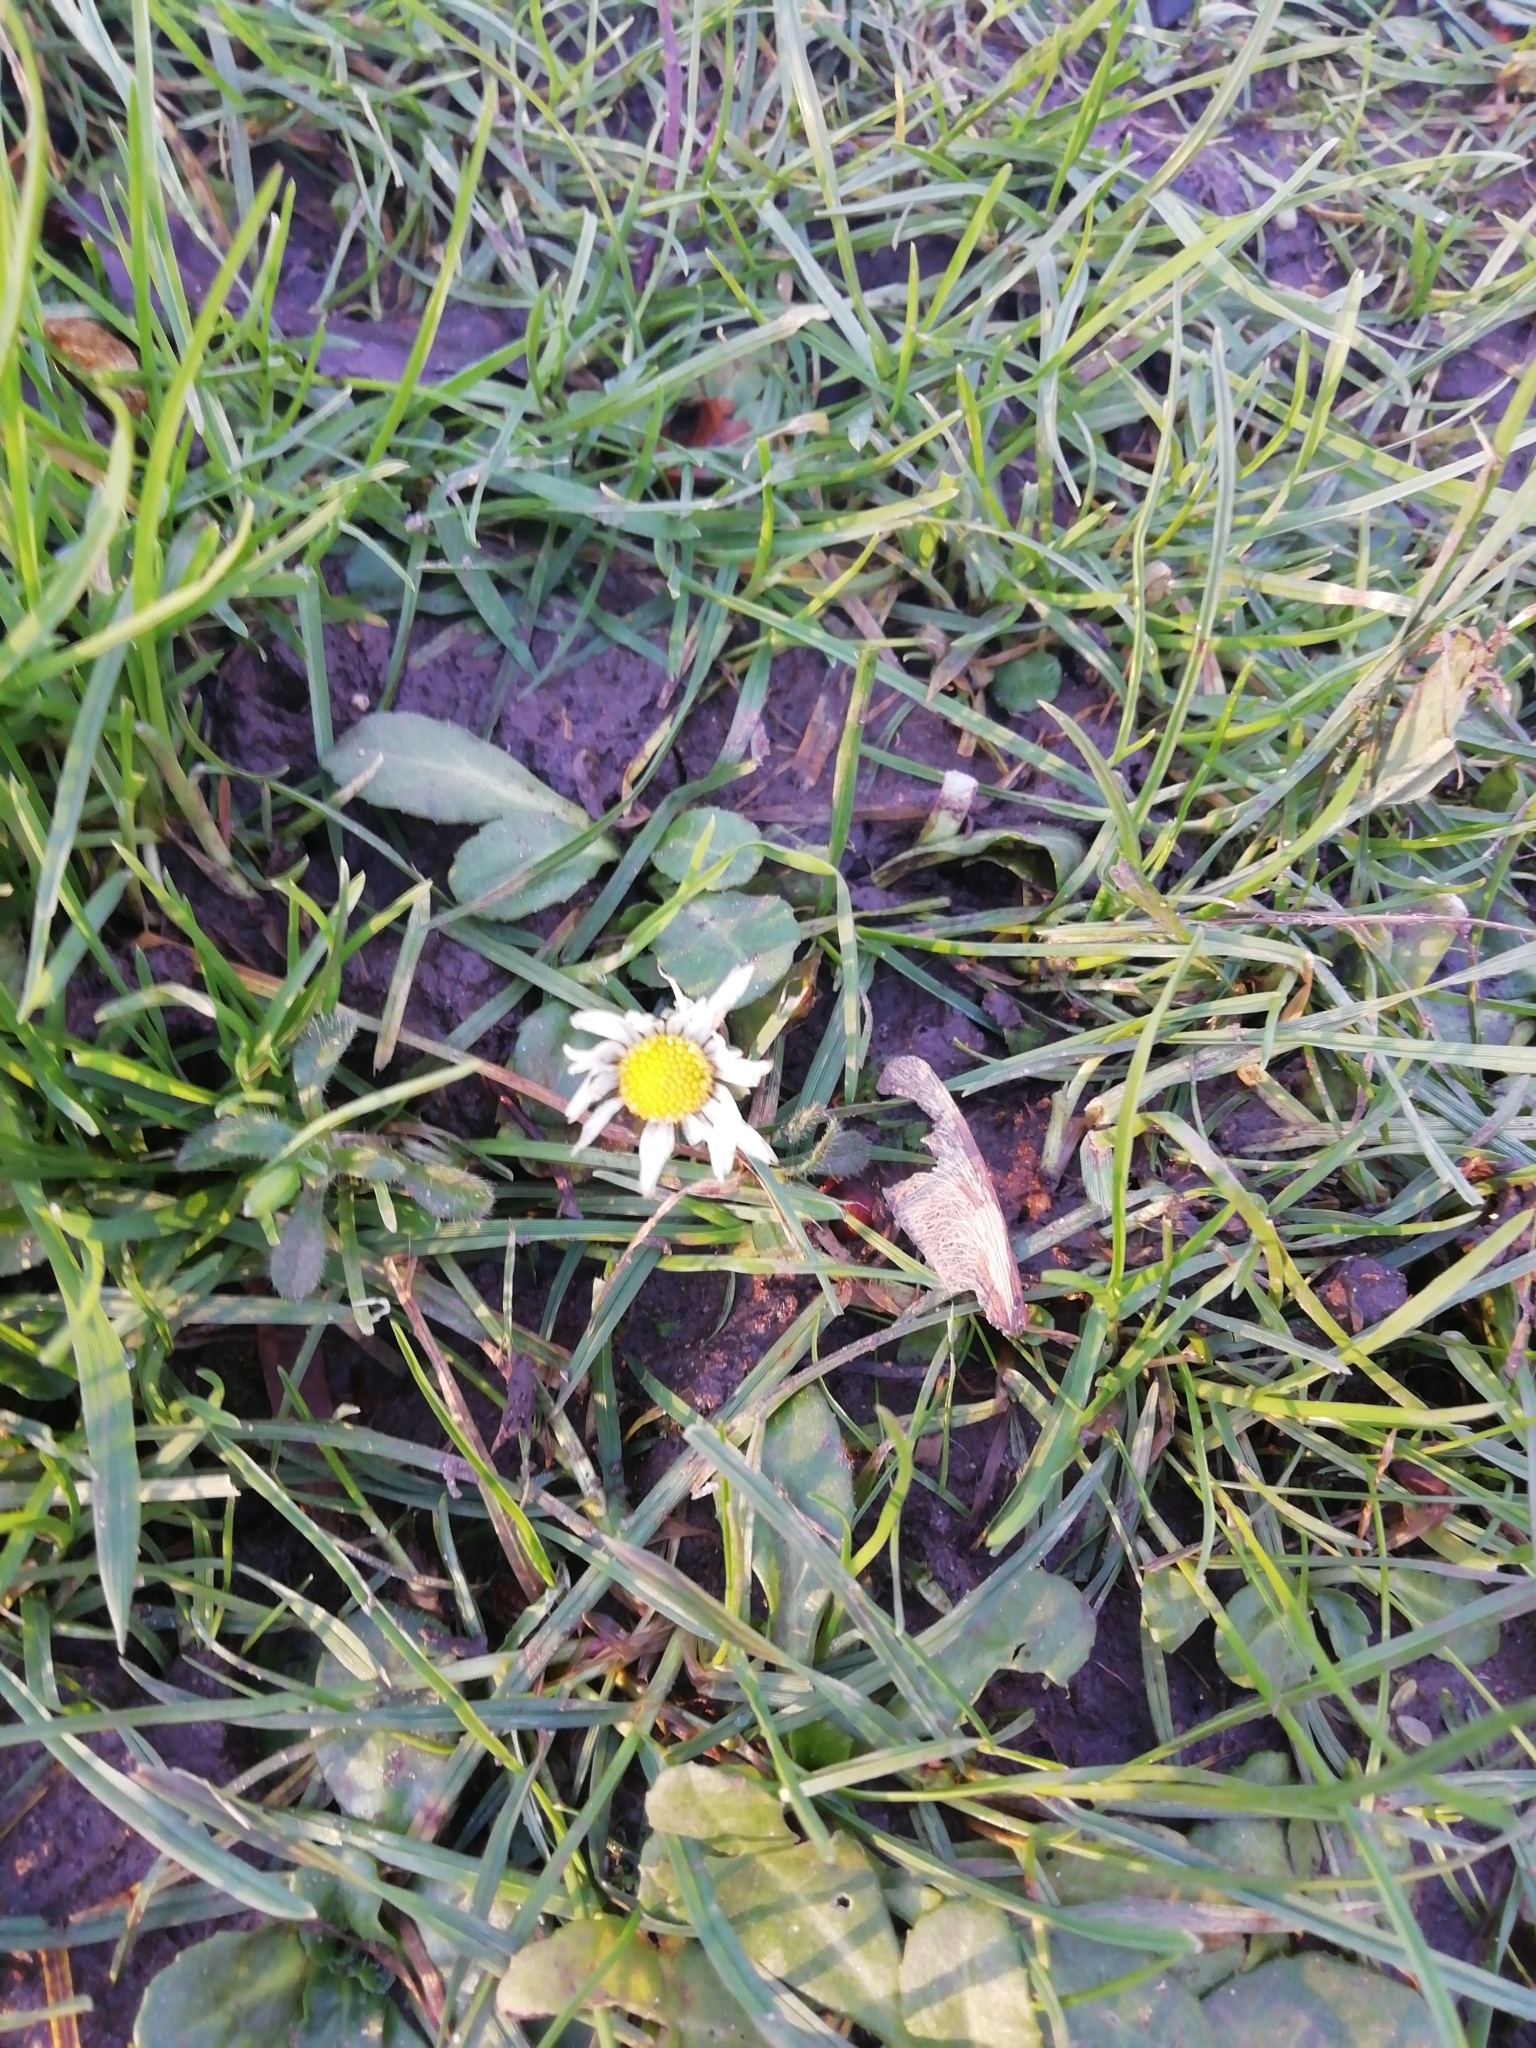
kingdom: Plantae
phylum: Tracheophyta
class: Magnoliopsida
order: Asterales
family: Asteraceae
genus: Bellis
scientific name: Bellis perennis
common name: Lawndaisy
